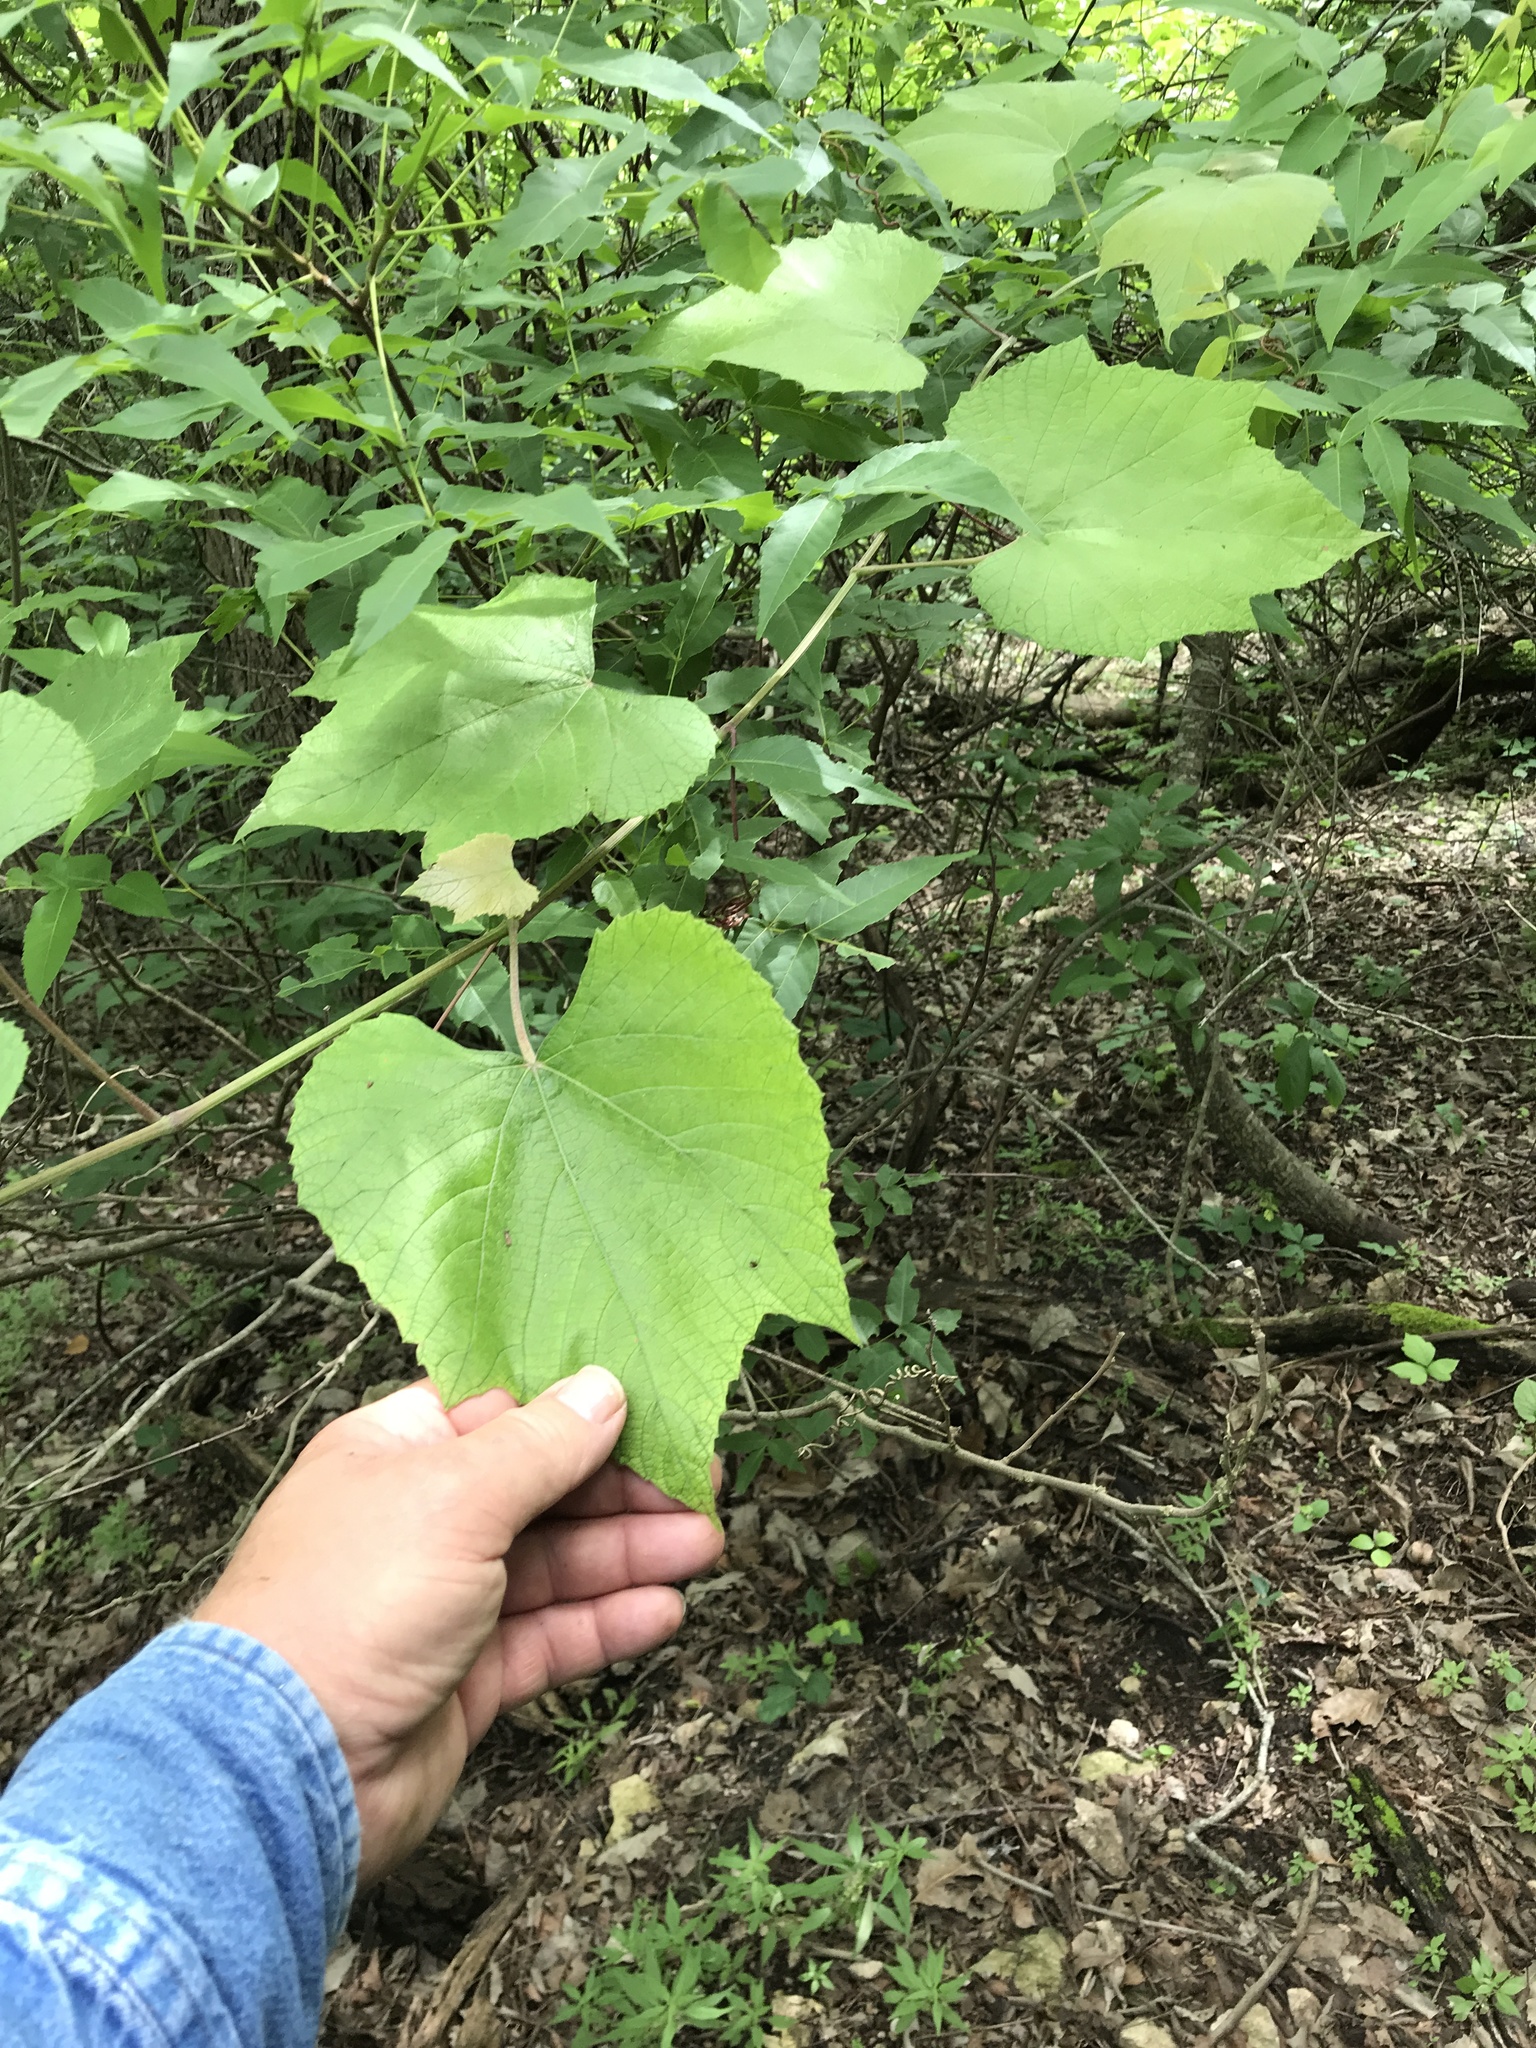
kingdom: Plantae
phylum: Tracheophyta
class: Magnoliopsida
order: Vitales
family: Vitaceae
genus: Vitis
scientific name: Vitis cinerea
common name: Ashy grape
